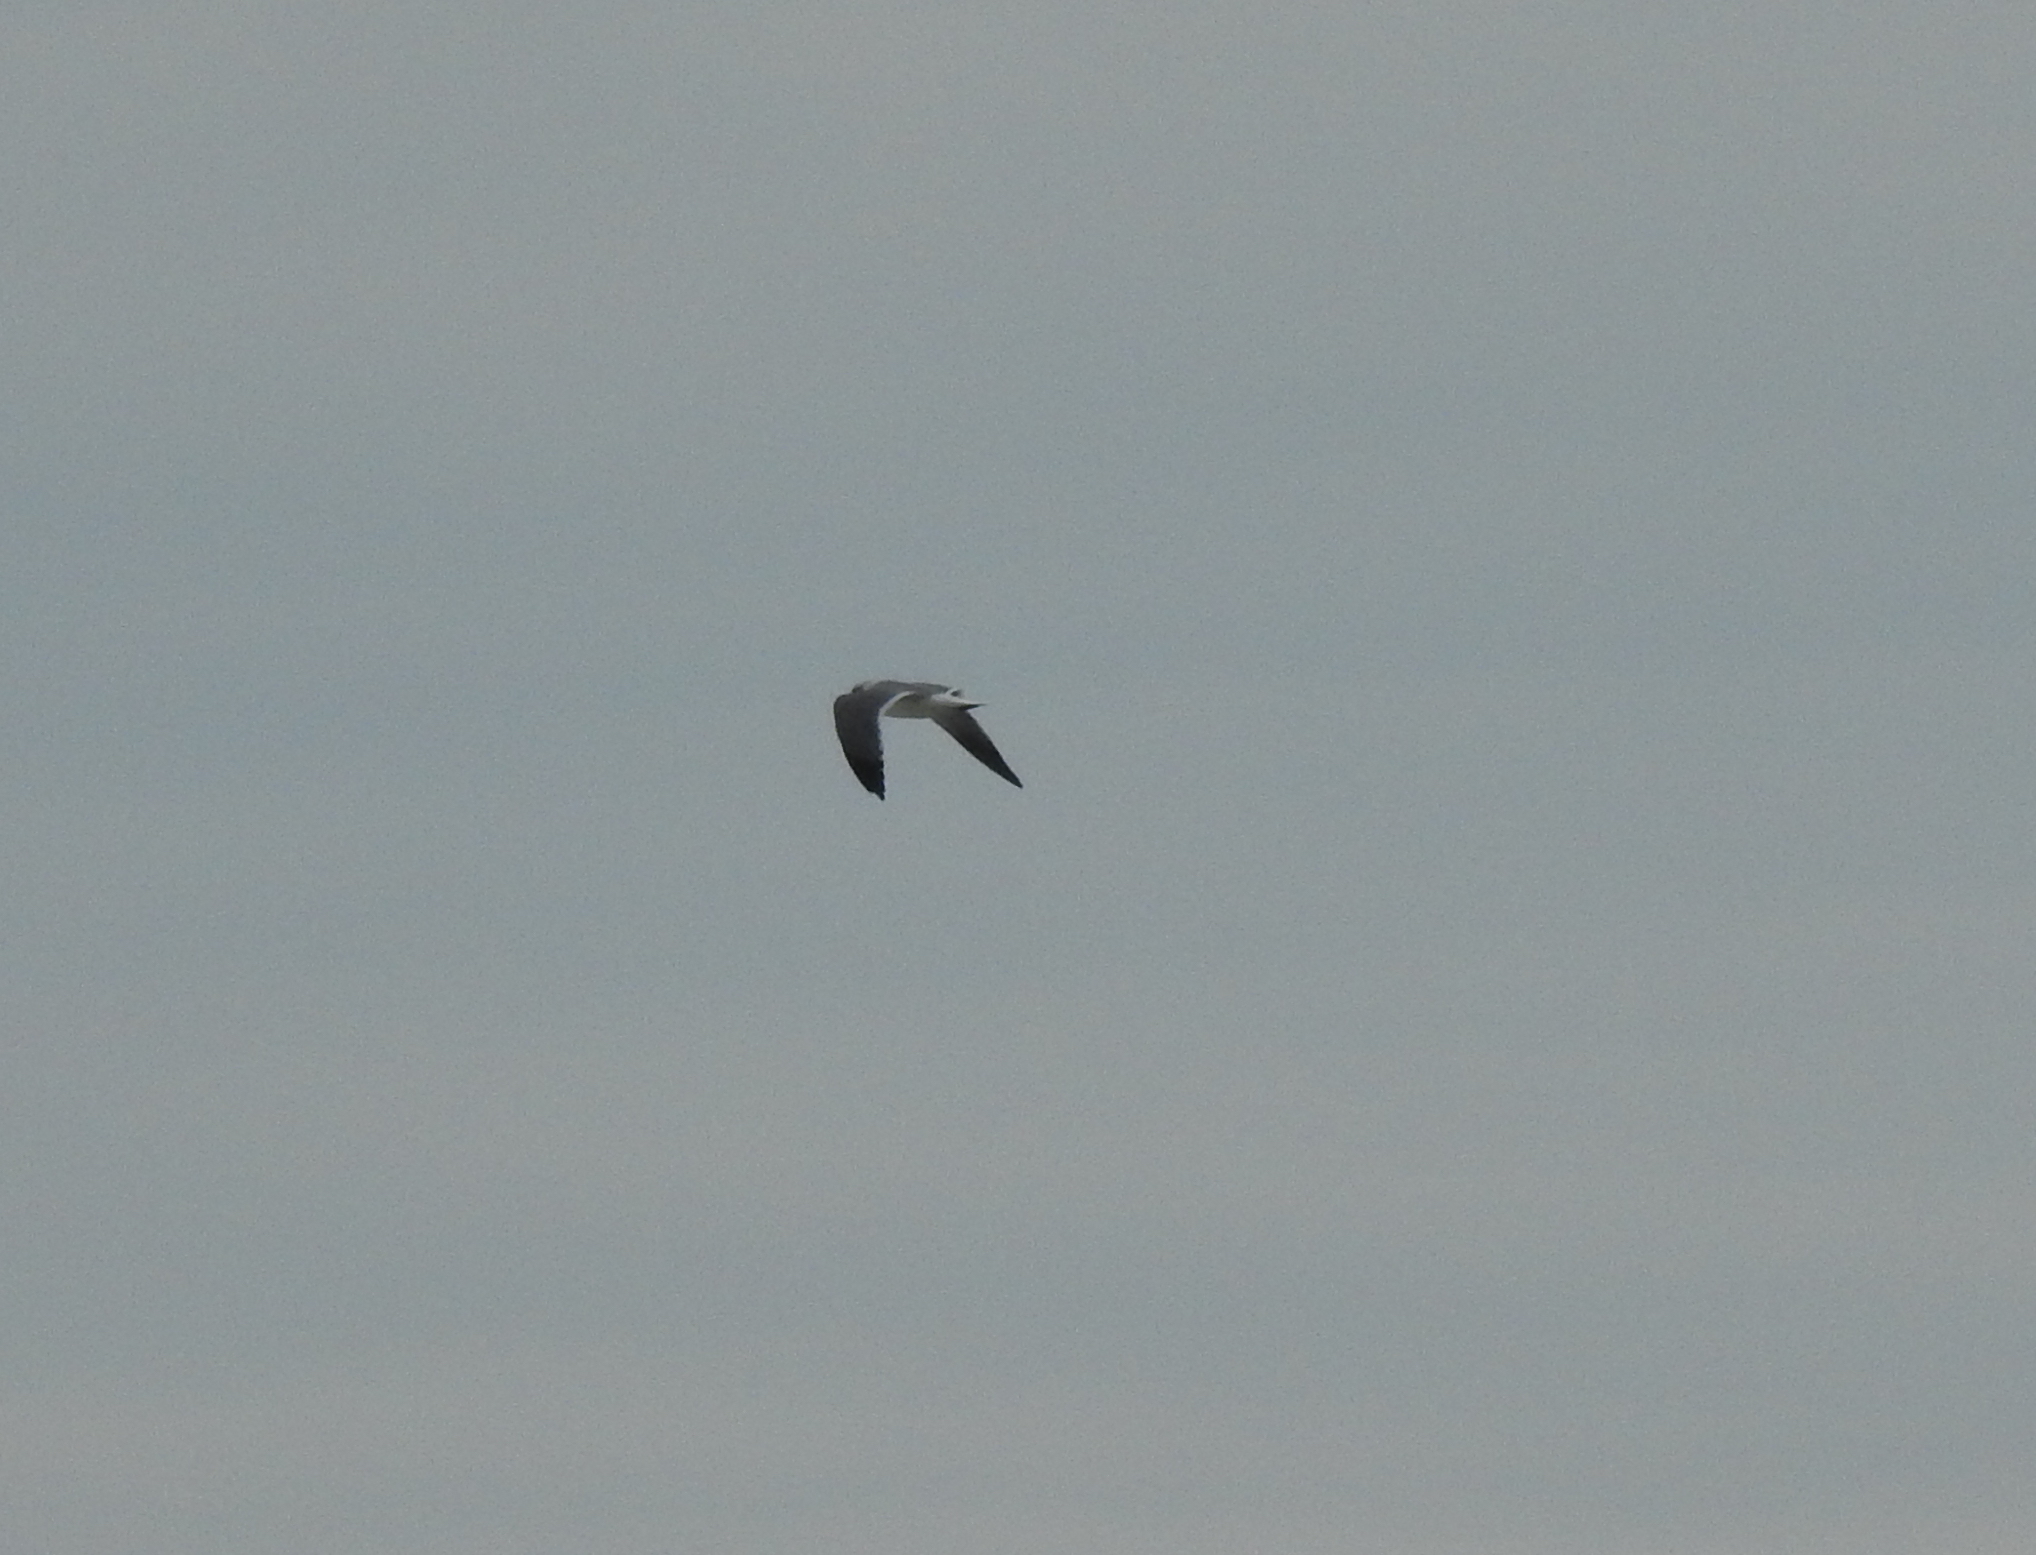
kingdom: Animalia
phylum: Chordata
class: Aves
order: Charadriiformes
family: Laridae
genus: Leucophaeus
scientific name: Leucophaeus atricilla
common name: Laughing gull
